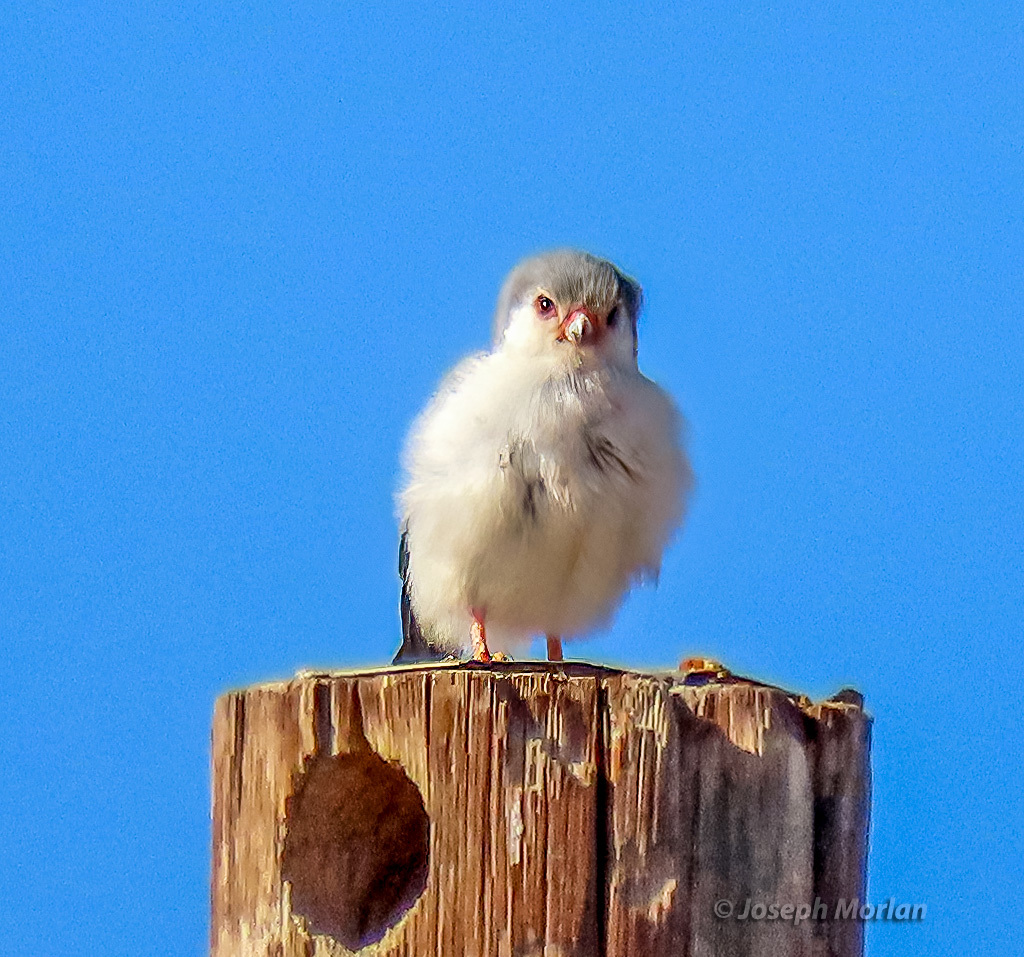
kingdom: Animalia
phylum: Chordata
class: Aves
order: Falconiformes
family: Falconidae
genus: Polihierax
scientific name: Polihierax semitorquatus
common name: Pygmy falcon
